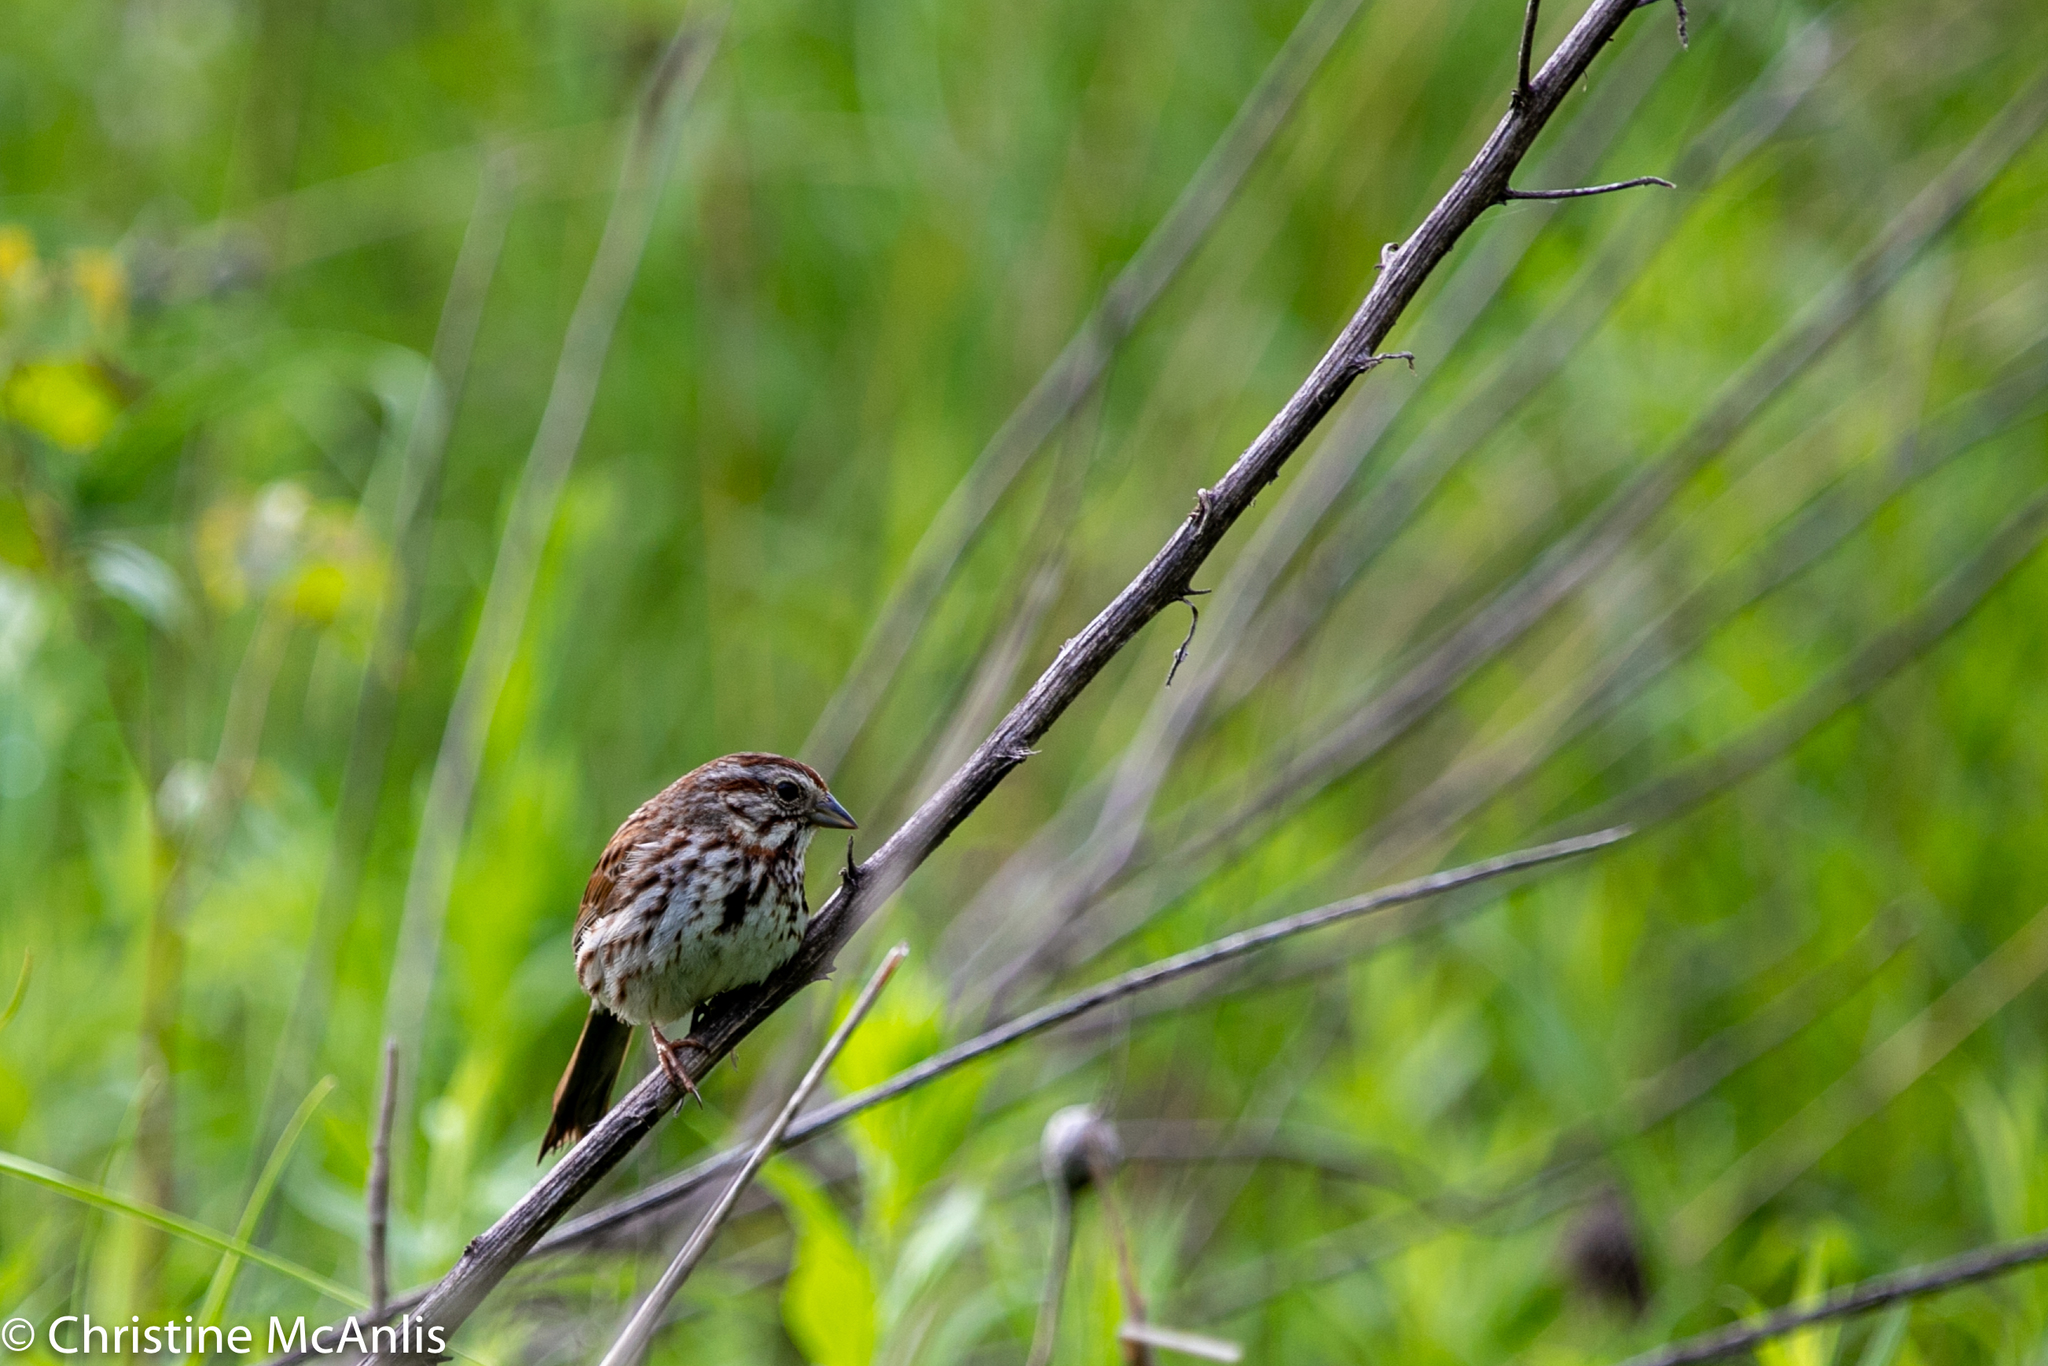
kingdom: Animalia
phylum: Chordata
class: Aves
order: Passeriformes
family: Passerellidae
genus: Melospiza
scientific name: Melospiza melodia
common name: Song sparrow
